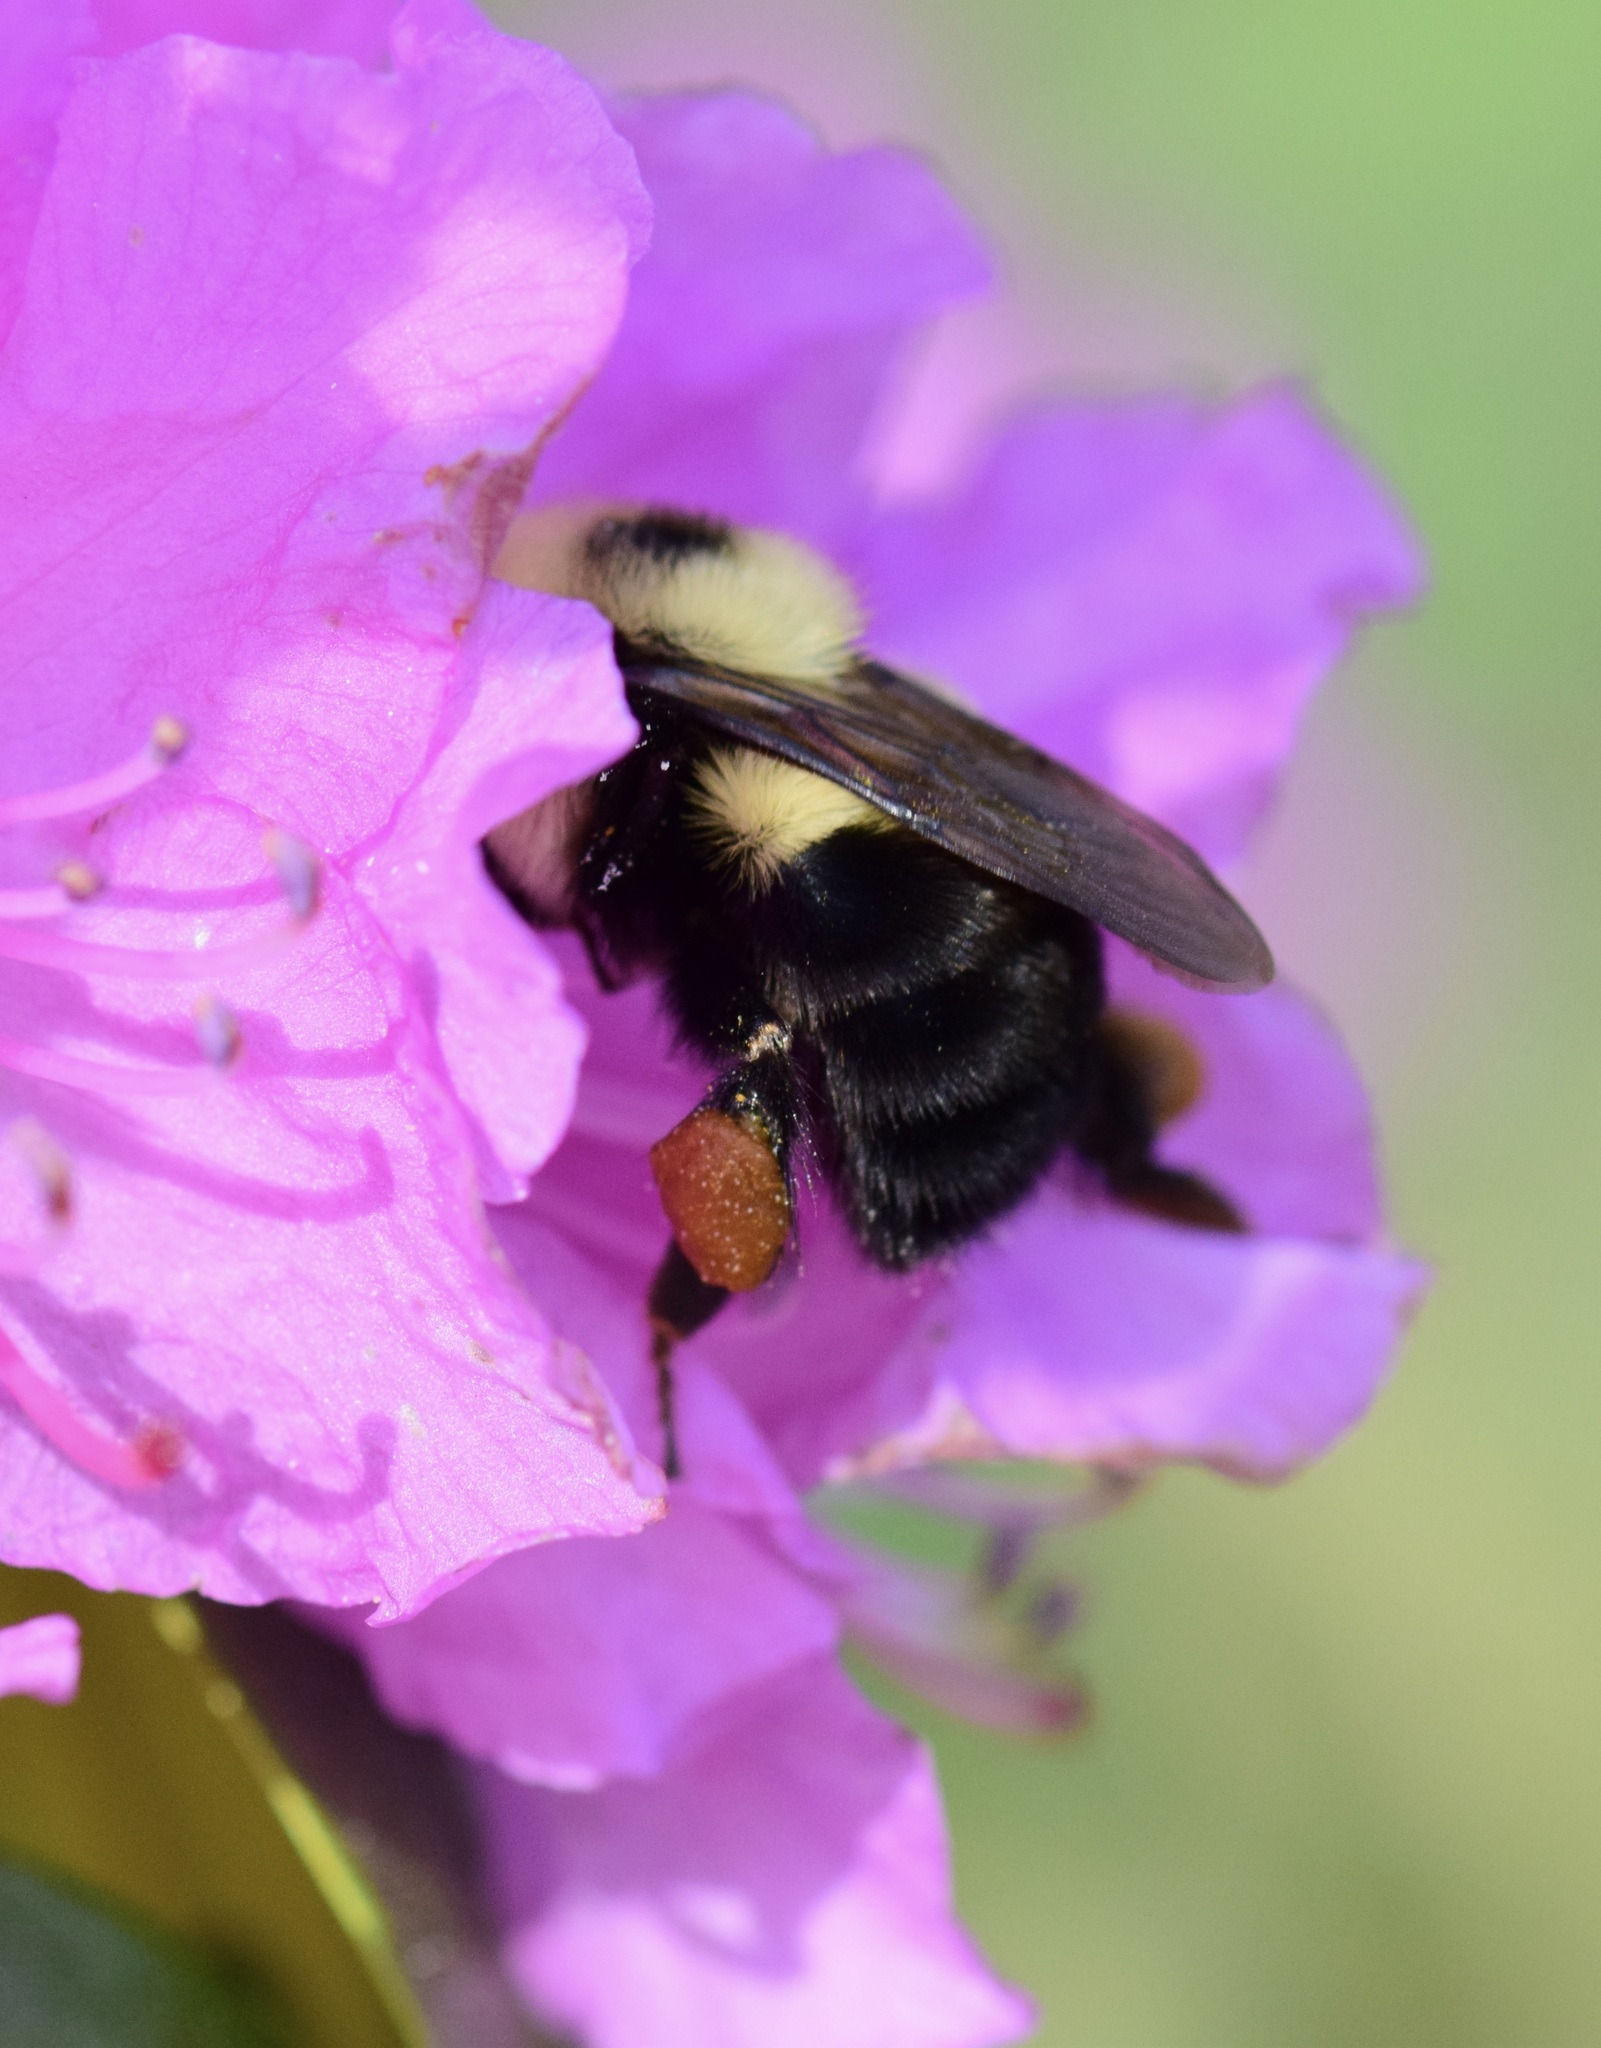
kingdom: Animalia
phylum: Arthropoda
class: Insecta
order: Hymenoptera
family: Apidae
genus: Bombus
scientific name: Bombus bimaculatus
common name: Two-spotted bumble bee
